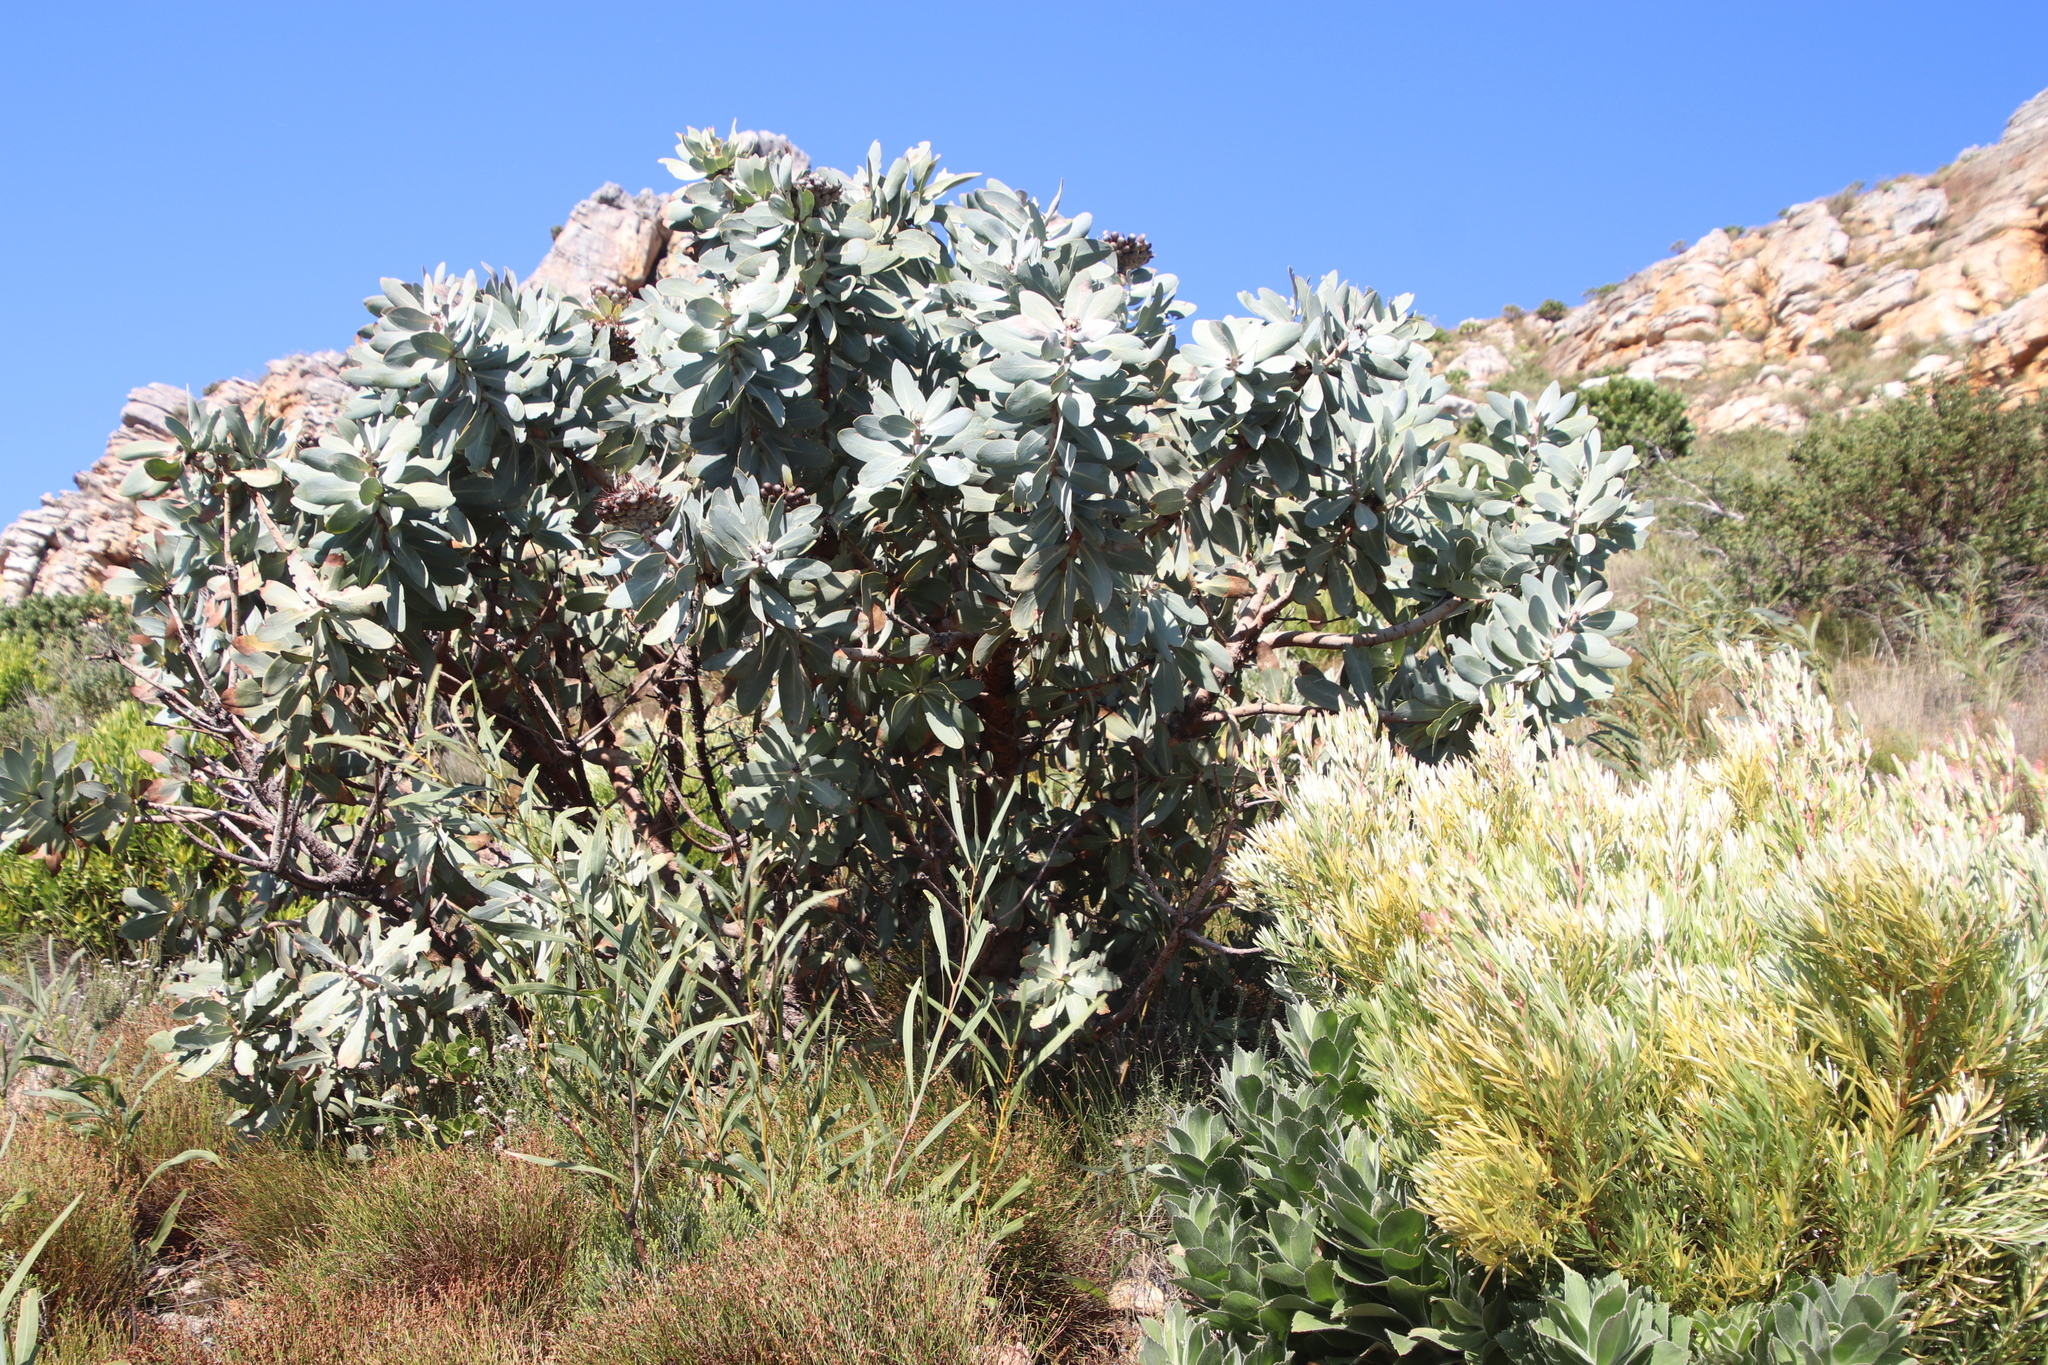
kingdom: Plantae
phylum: Tracheophyta
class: Magnoliopsida
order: Proteales
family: Proteaceae
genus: Protea
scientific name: Protea nitida
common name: Tree protea
